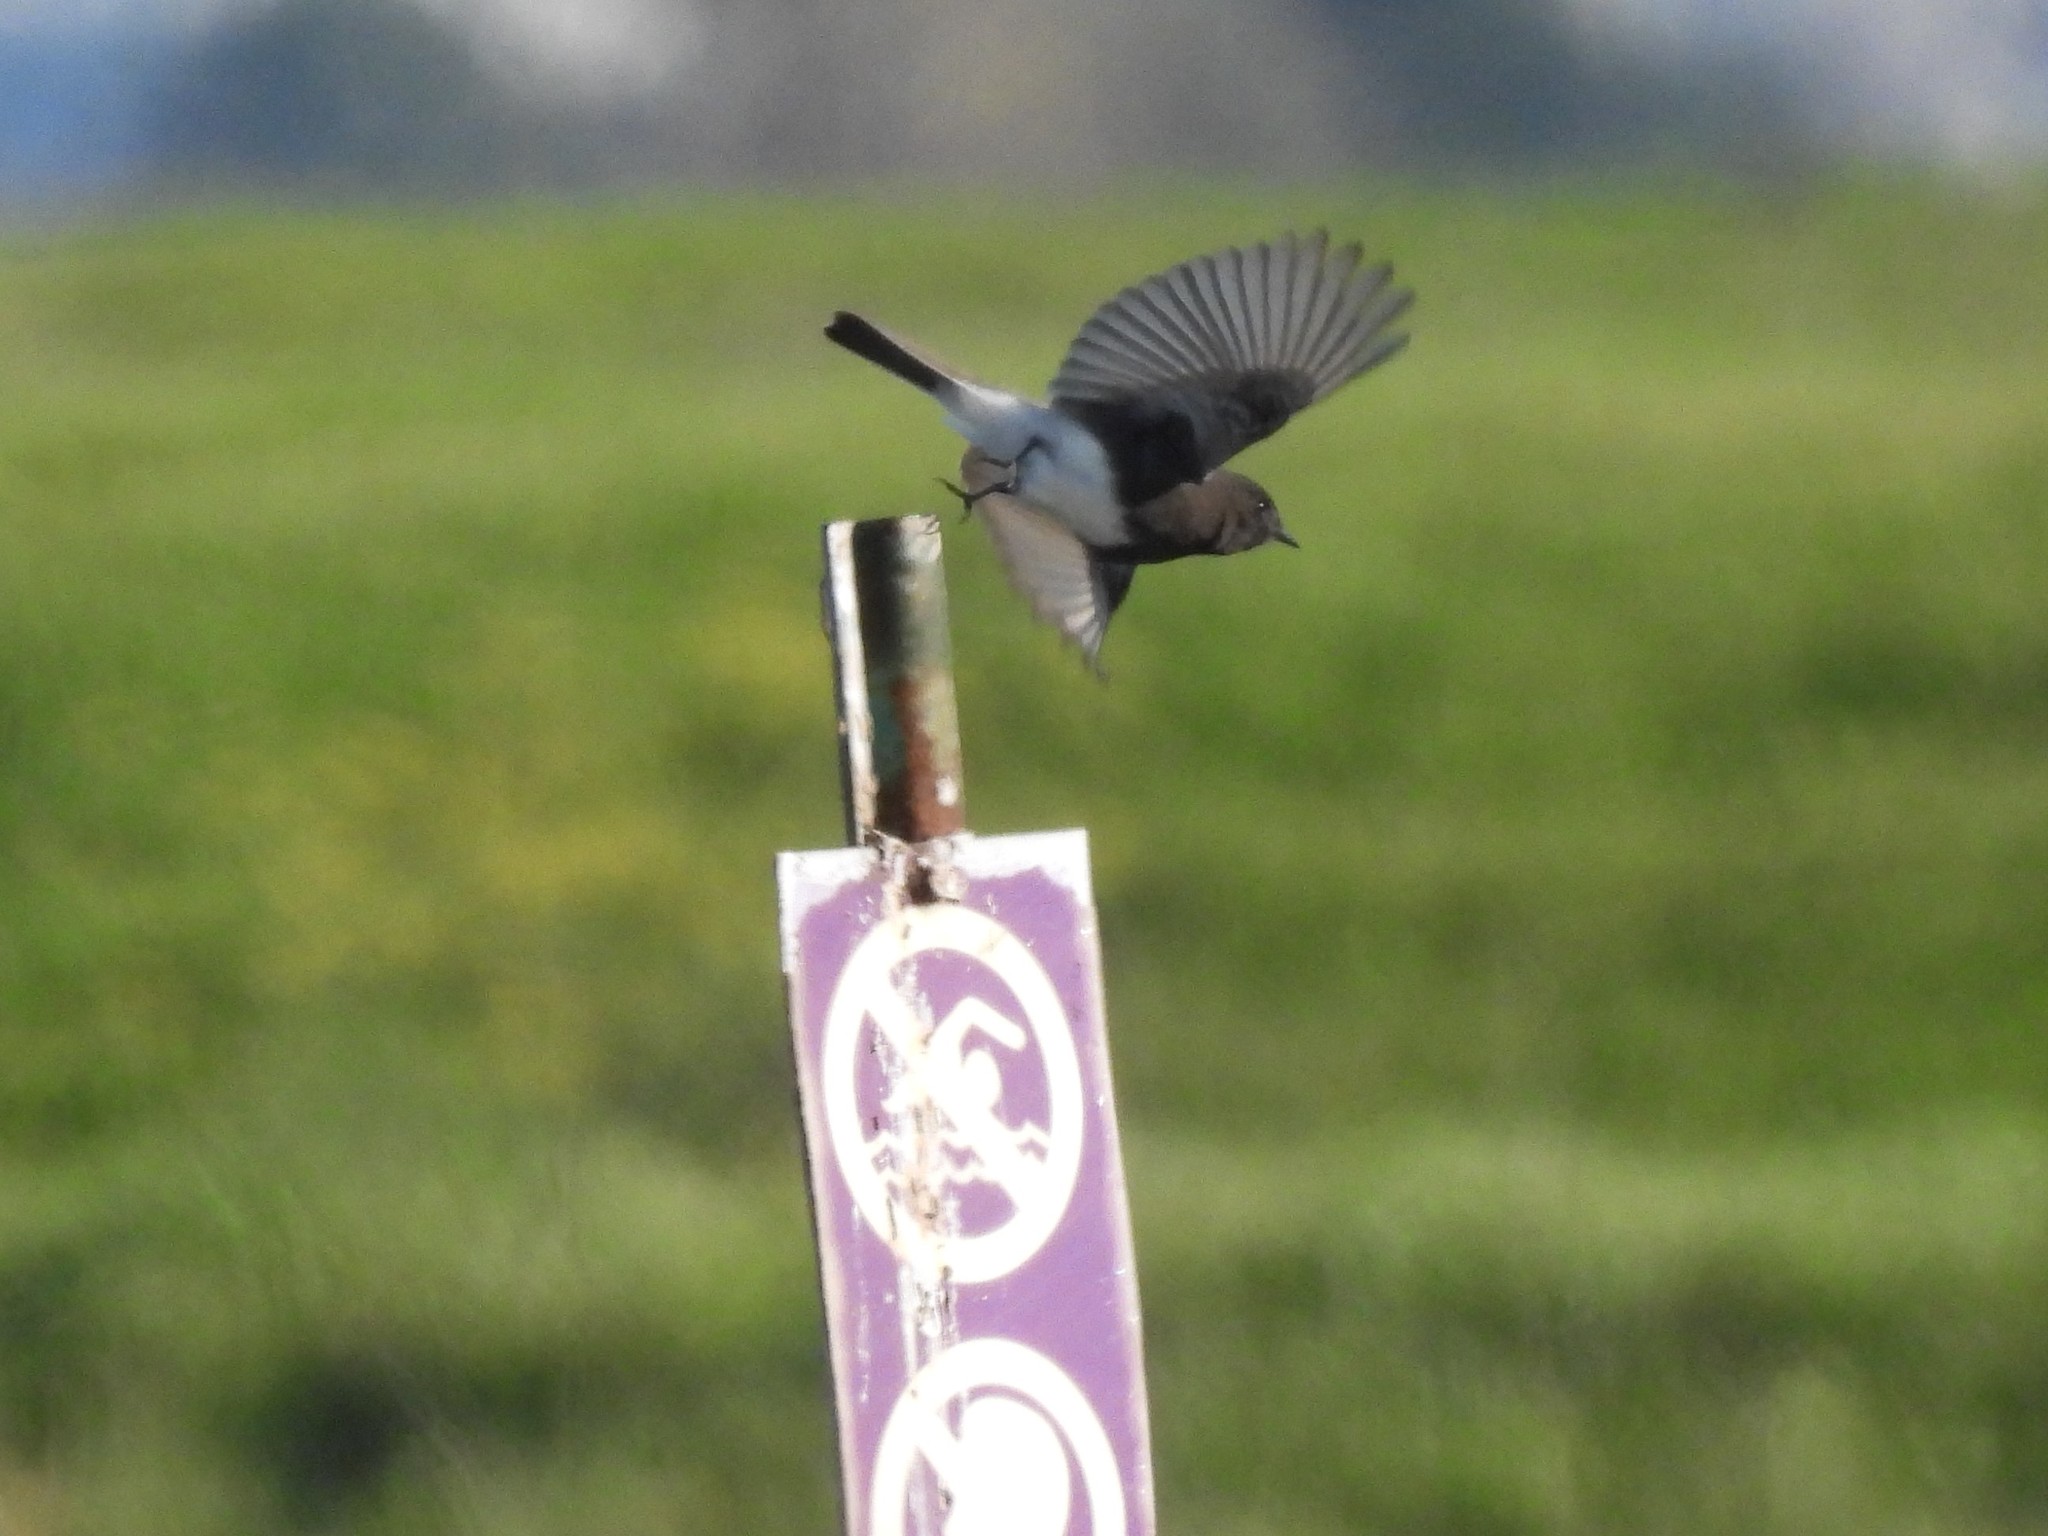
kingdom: Animalia
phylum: Chordata
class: Aves
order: Passeriformes
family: Tyrannidae
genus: Sayornis
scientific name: Sayornis nigricans
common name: Black phoebe
